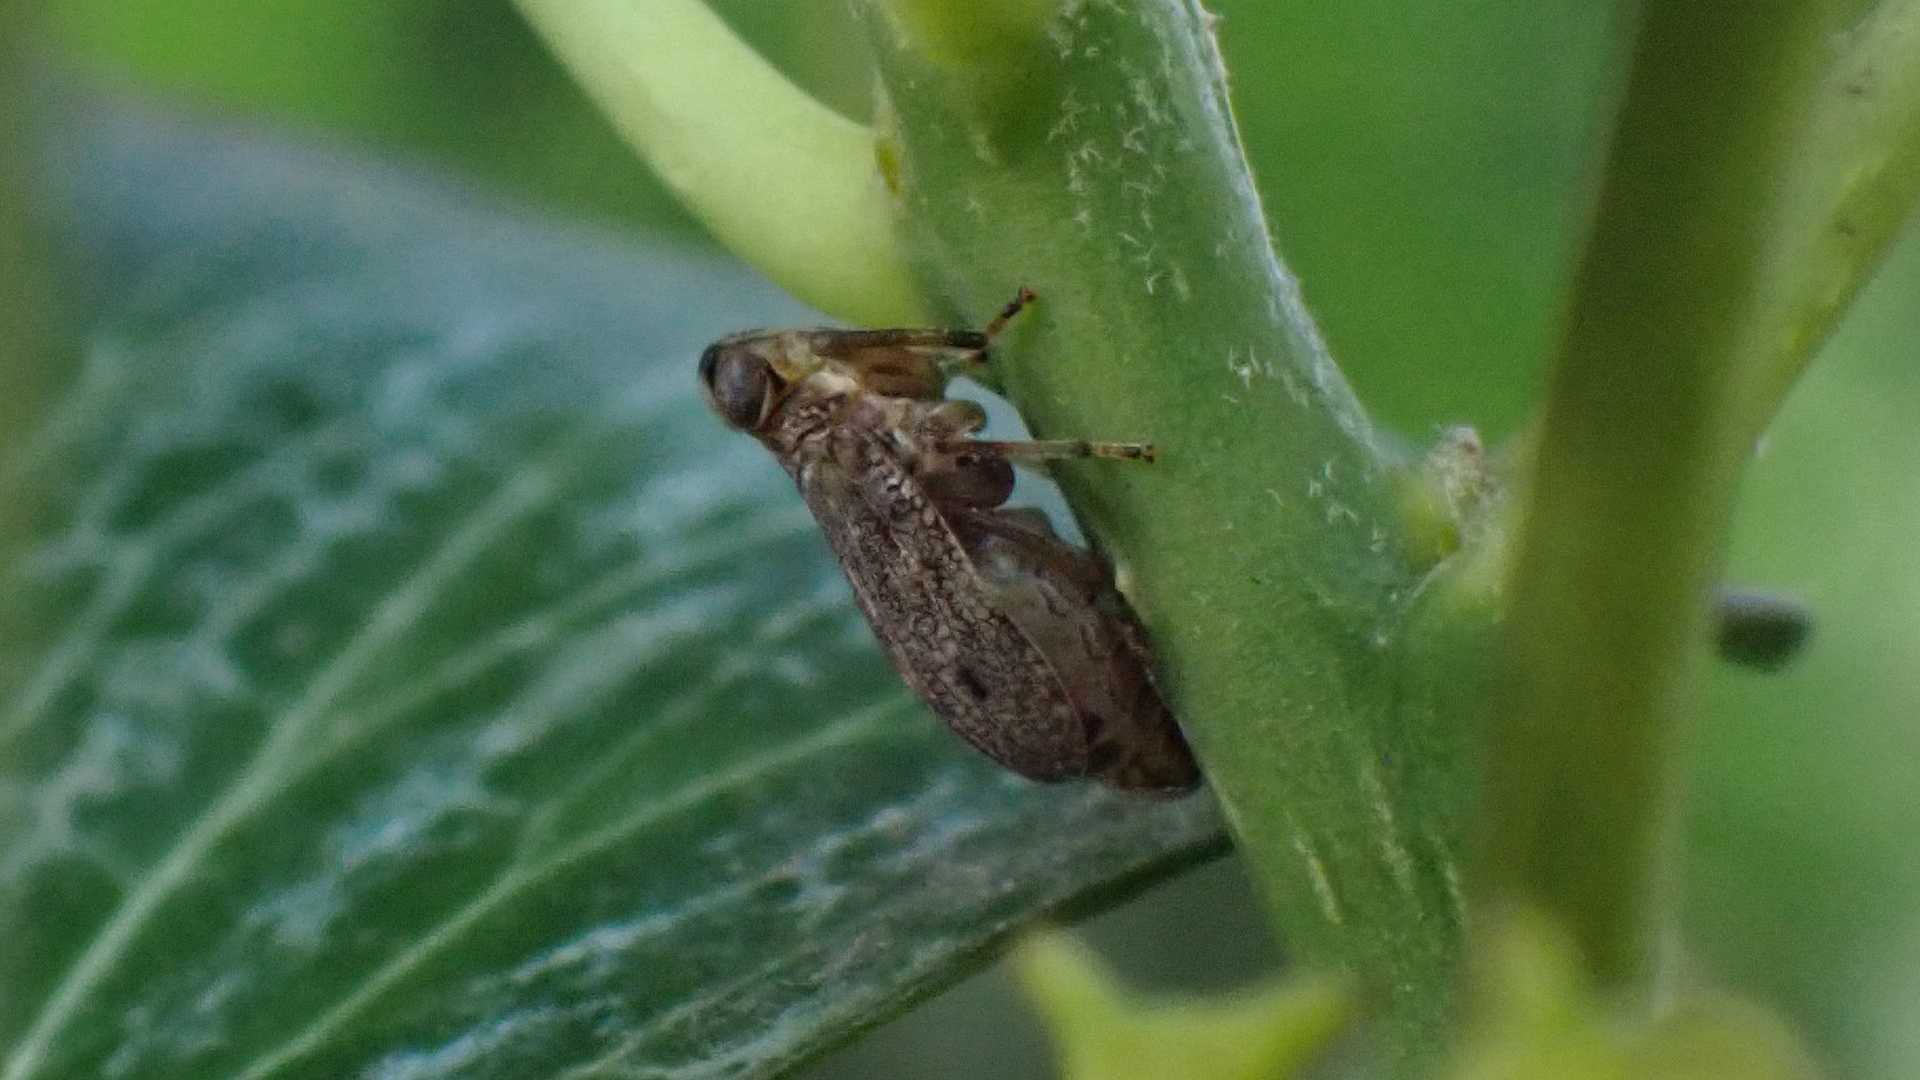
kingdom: Animalia
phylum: Arthropoda
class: Insecta
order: Hemiptera
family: Issidae
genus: Issus
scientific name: Issus coleoptratus
